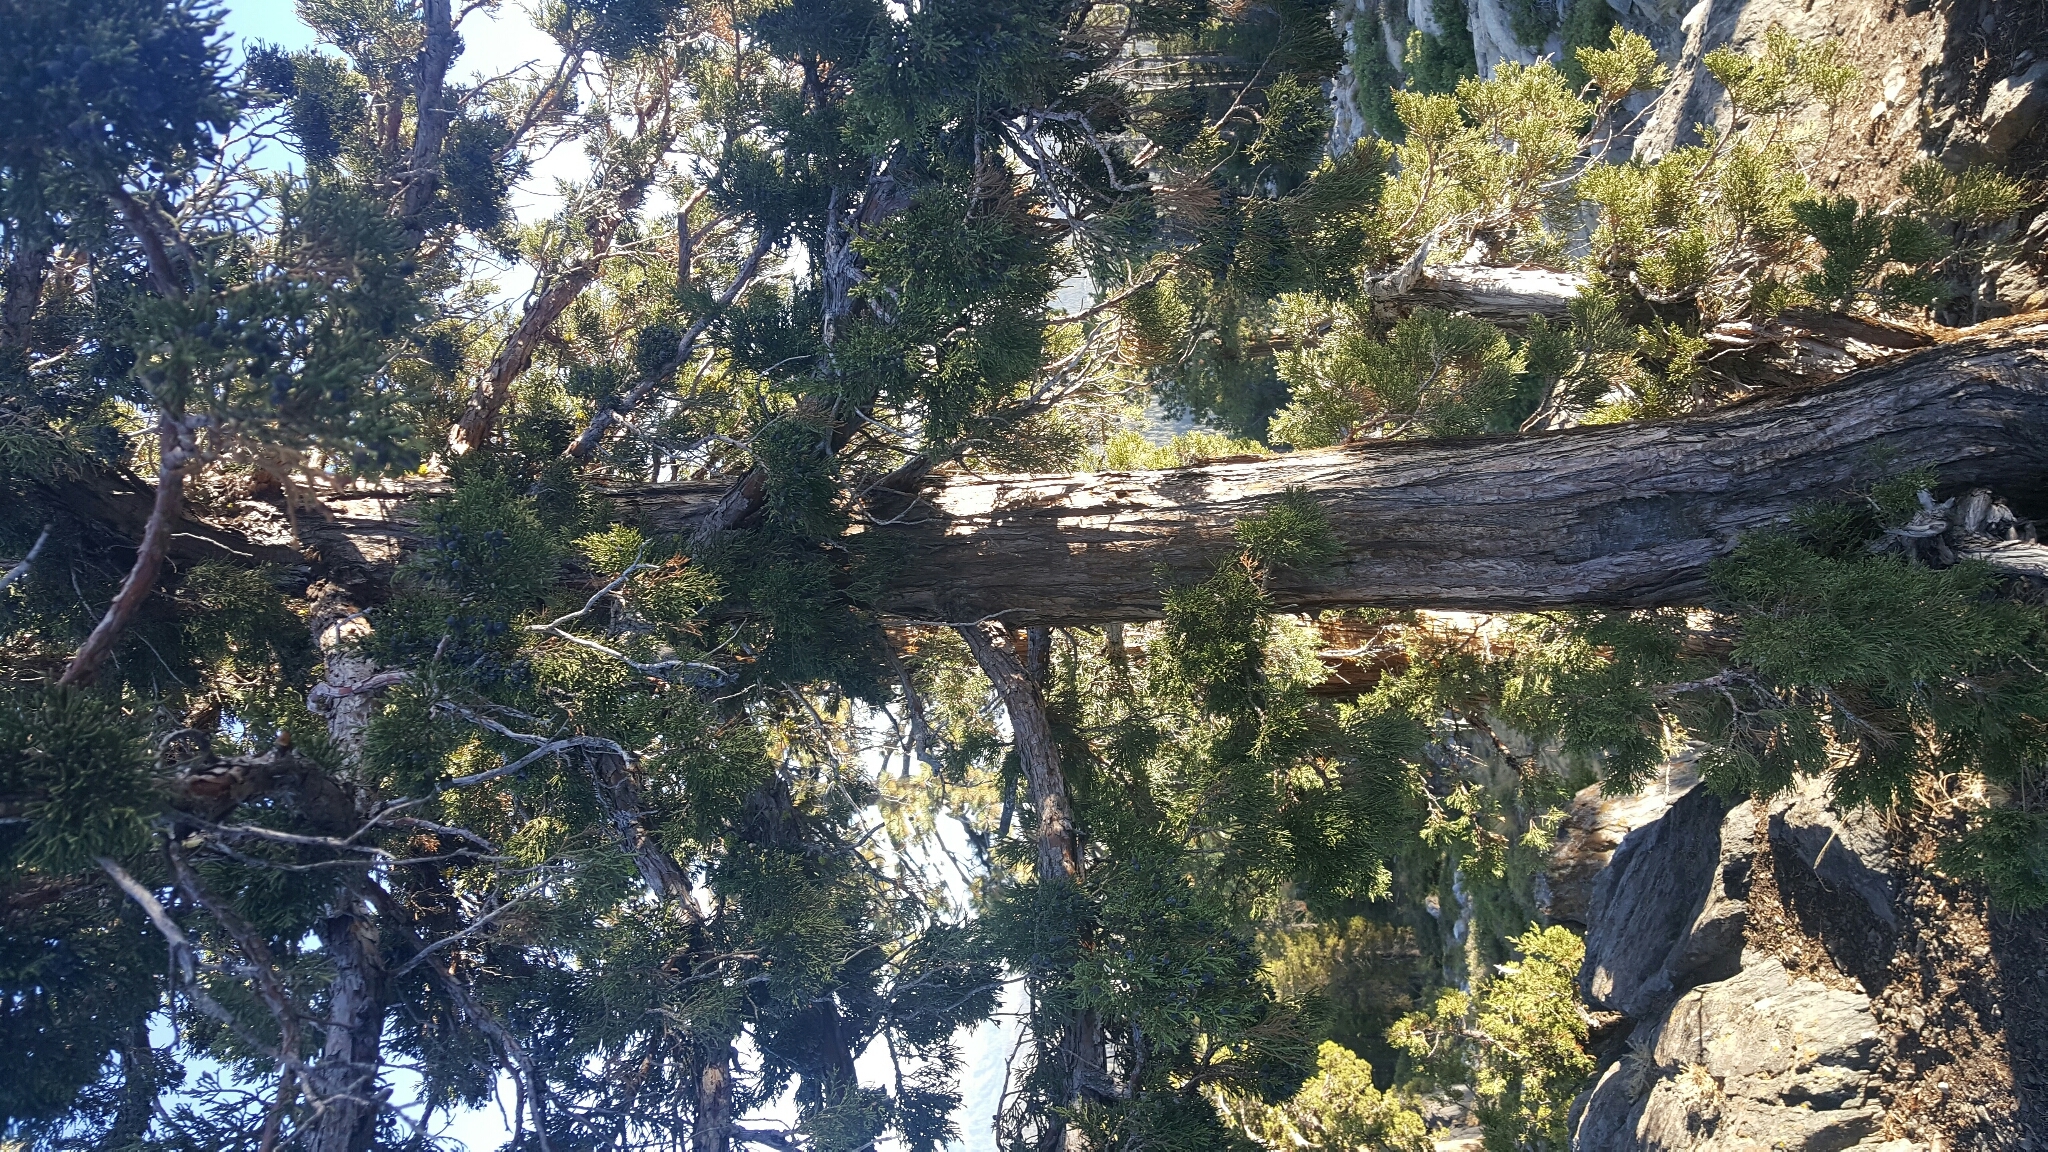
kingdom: Plantae
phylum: Tracheophyta
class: Pinopsida
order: Pinales
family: Cupressaceae
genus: Juniperus
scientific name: Juniperus occidentalis
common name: Western juniper
